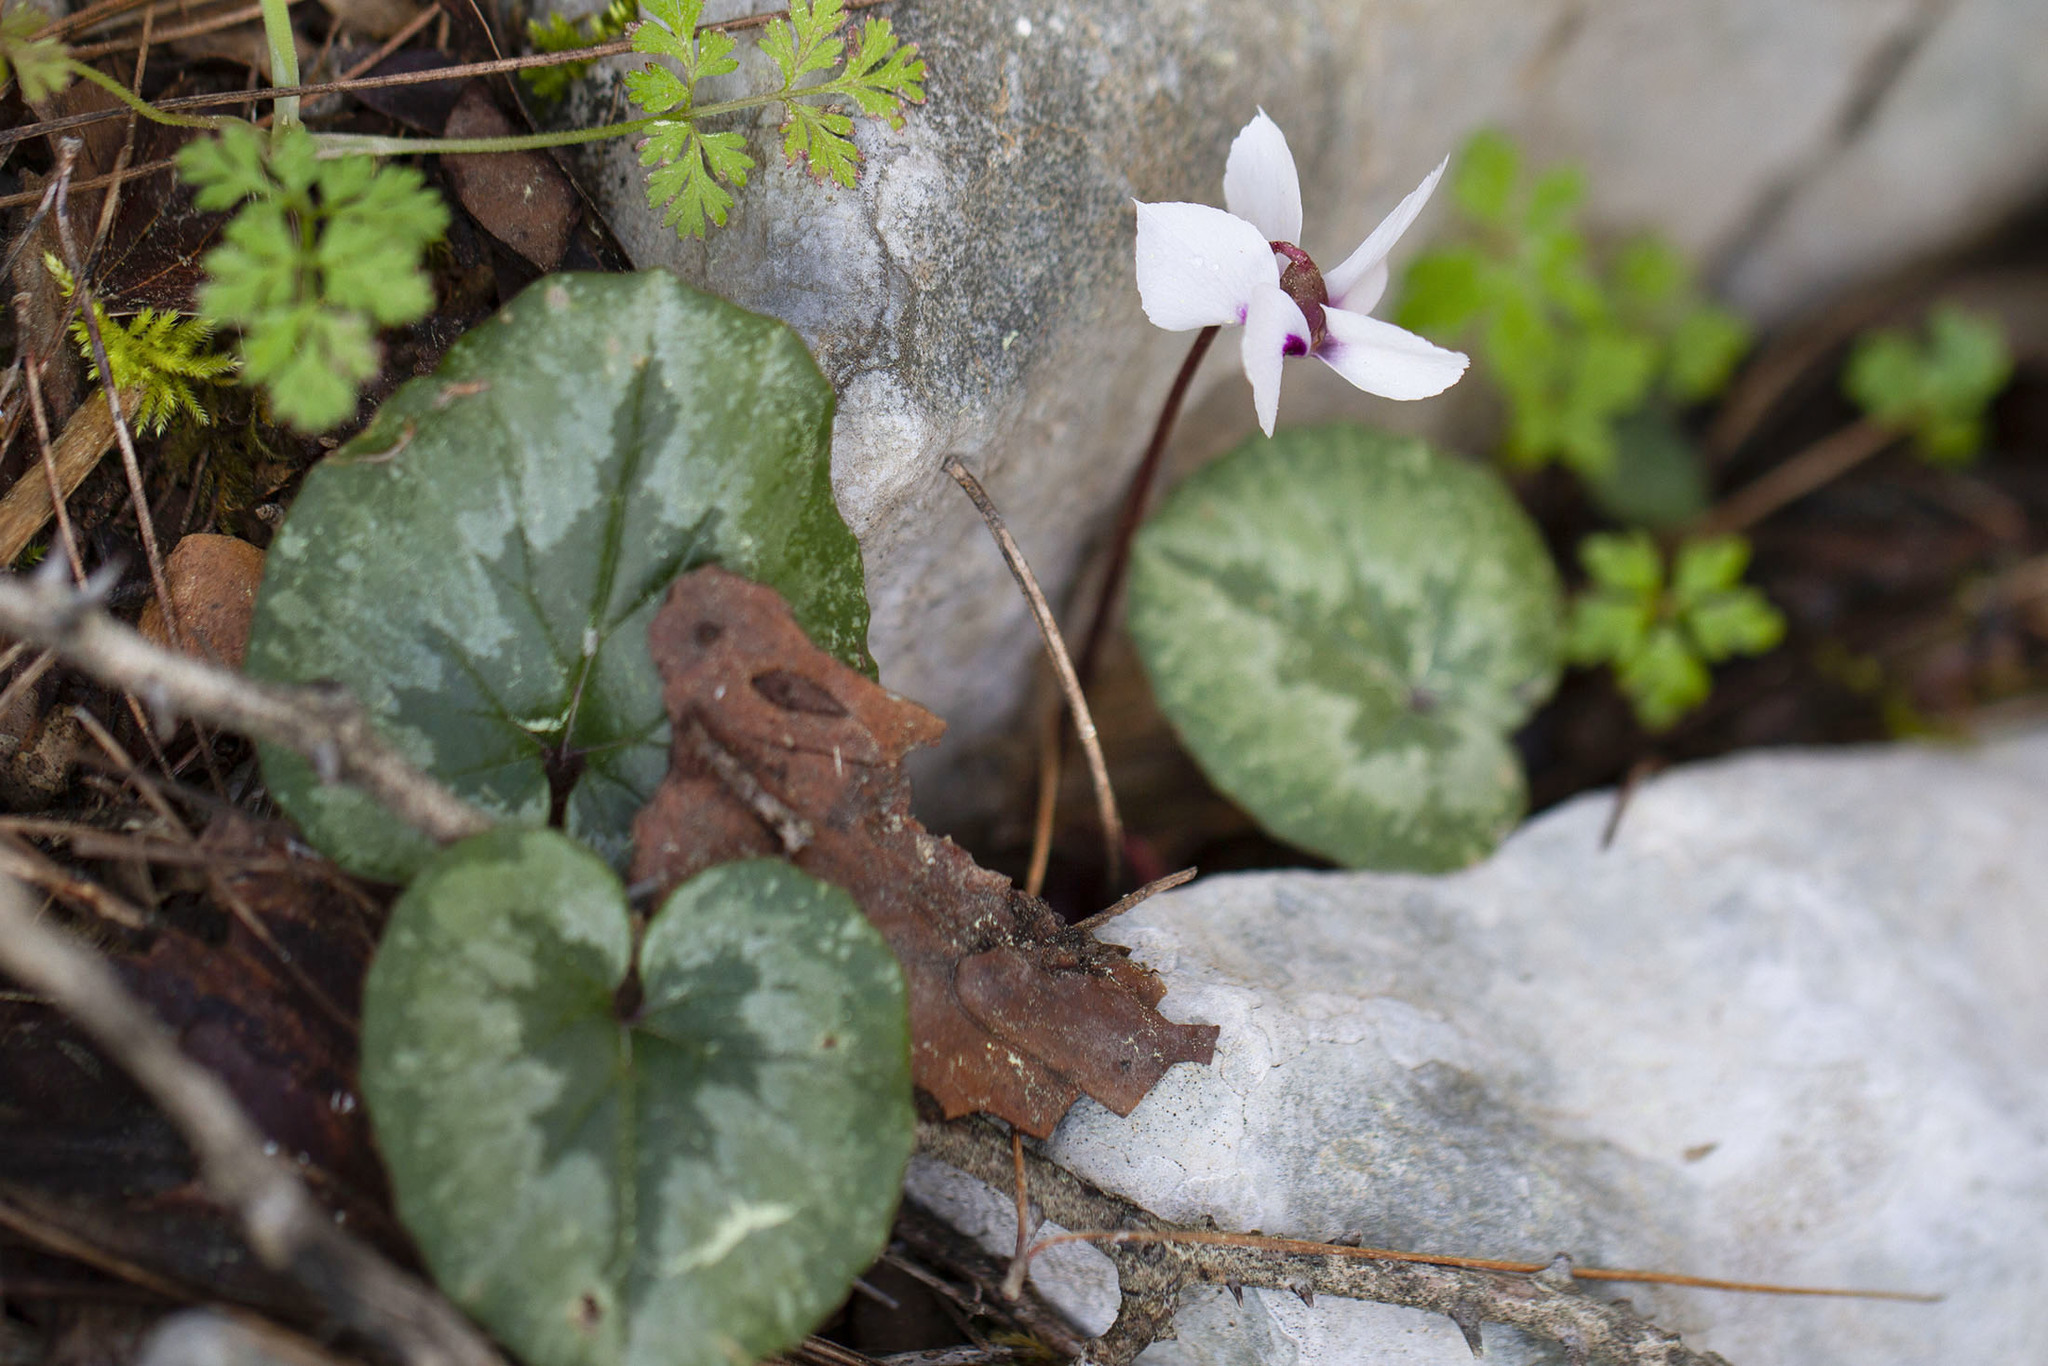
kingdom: Plantae
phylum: Tracheophyta
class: Magnoliopsida
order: Ericales
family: Primulaceae
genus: Cyclamen
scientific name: Cyclamen alpinum
